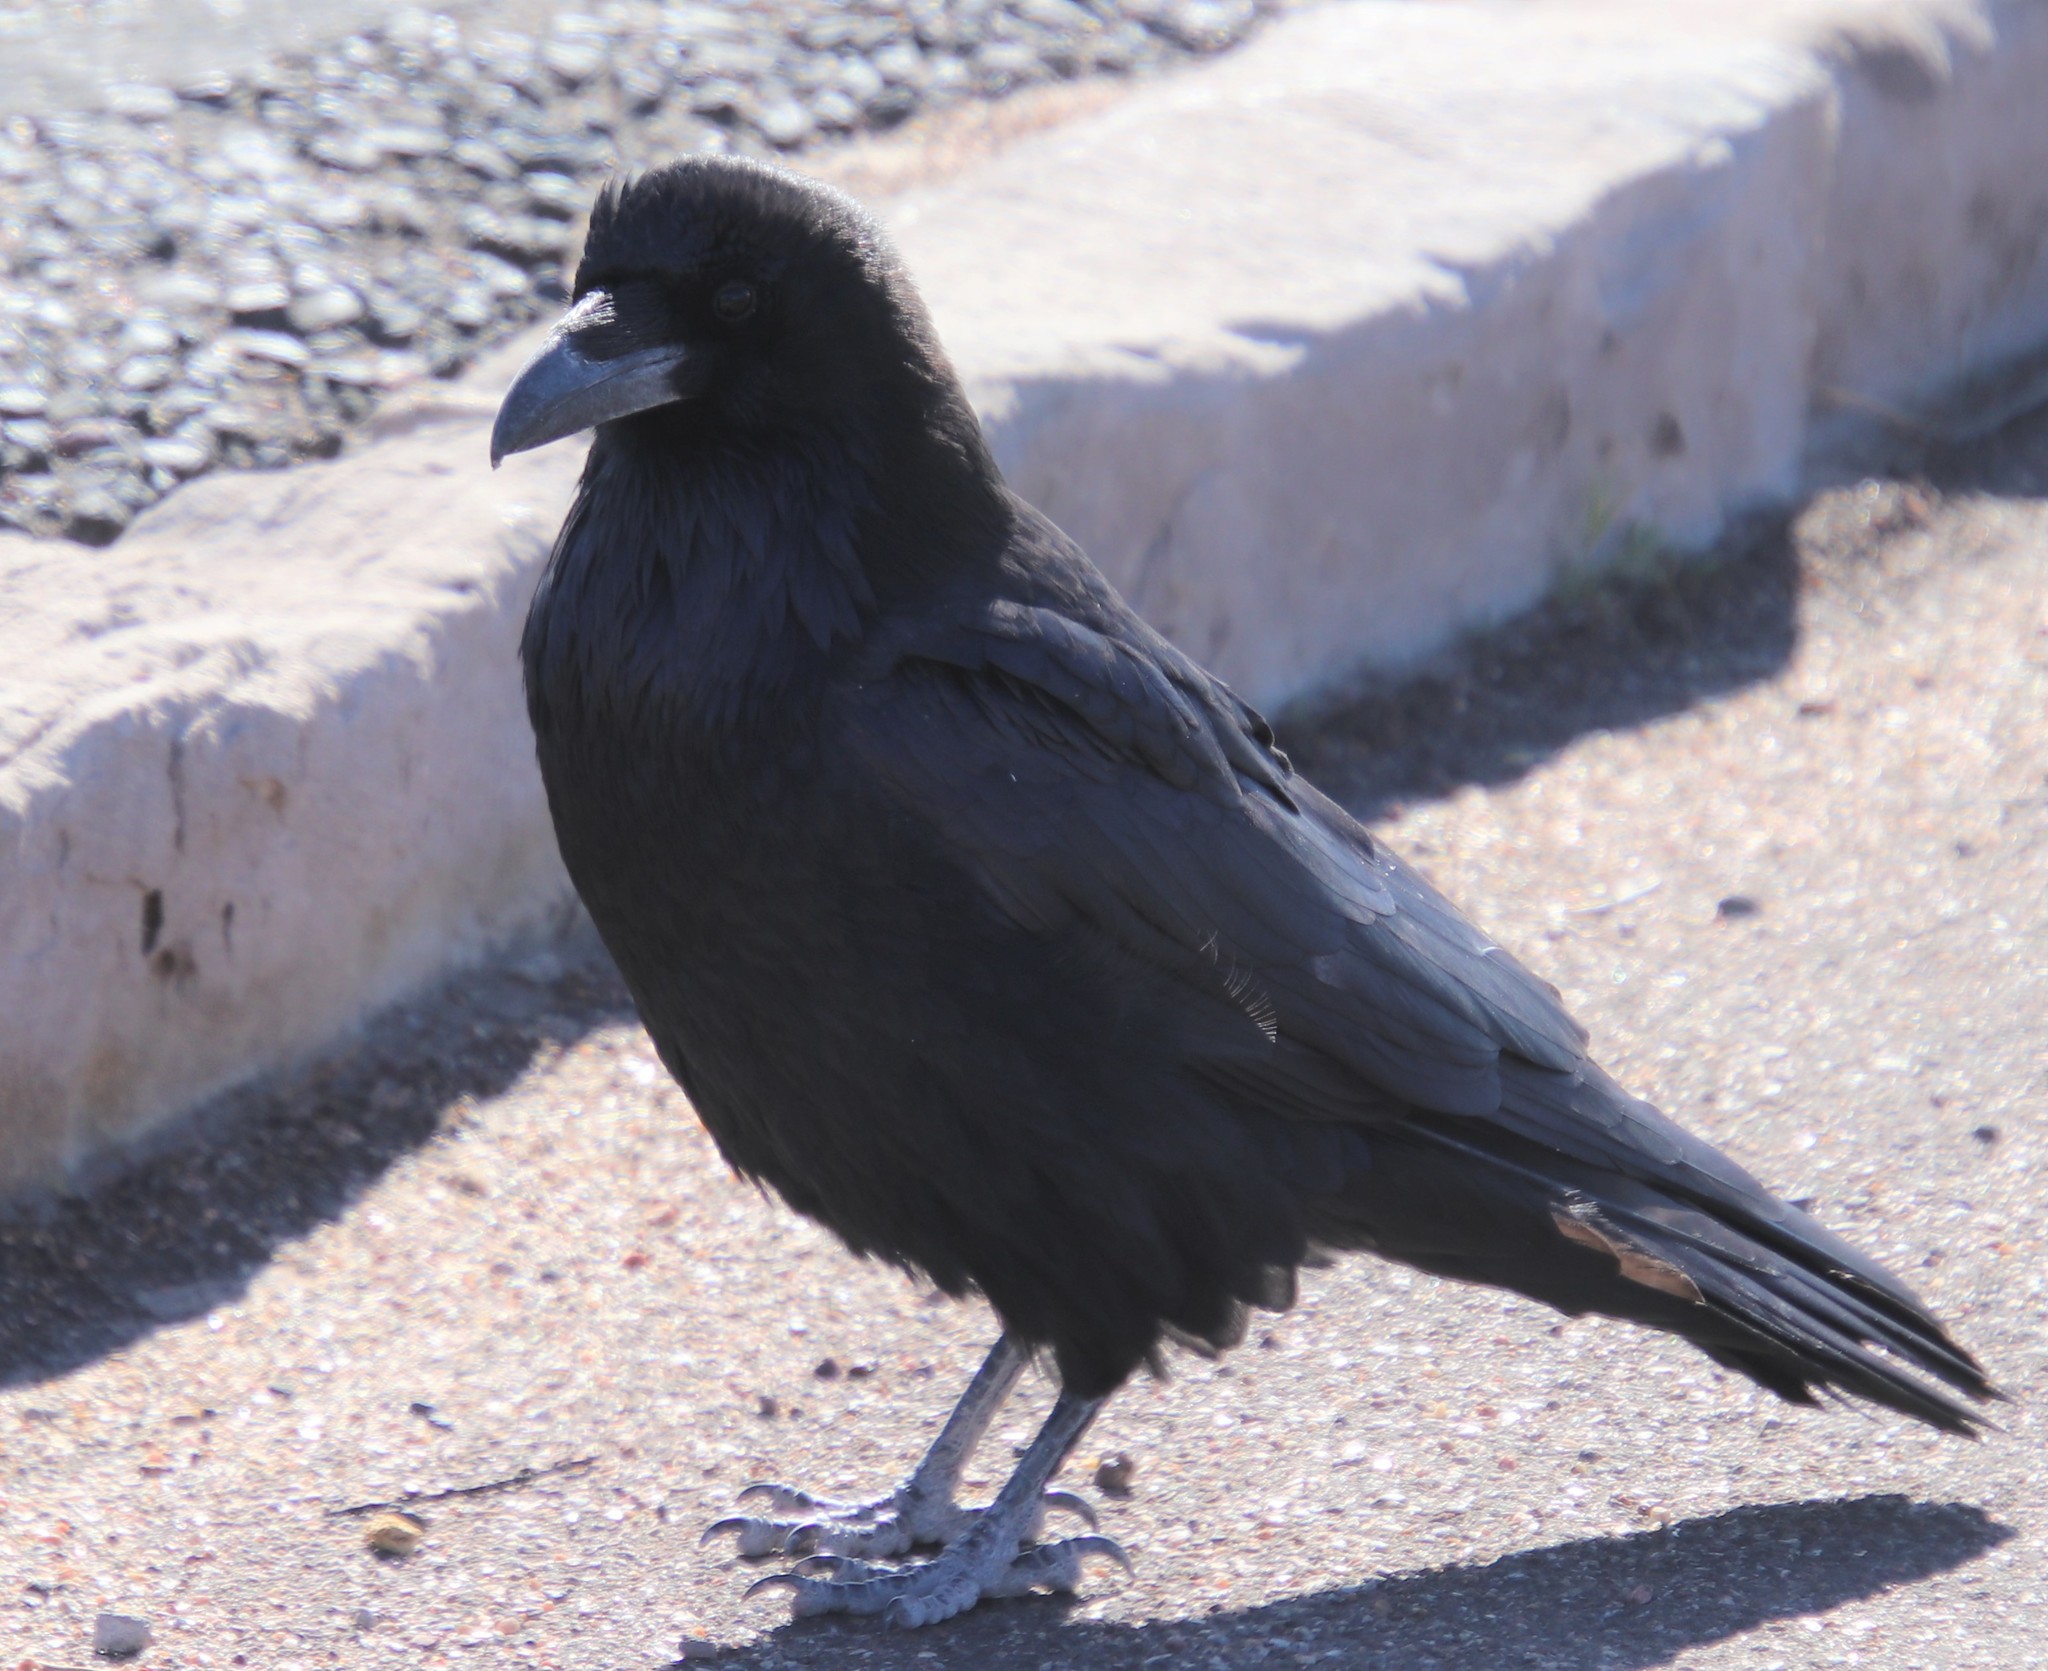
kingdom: Animalia
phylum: Chordata
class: Aves
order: Passeriformes
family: Corvidae
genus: Corvus
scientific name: Corvus corax
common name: Common raven
